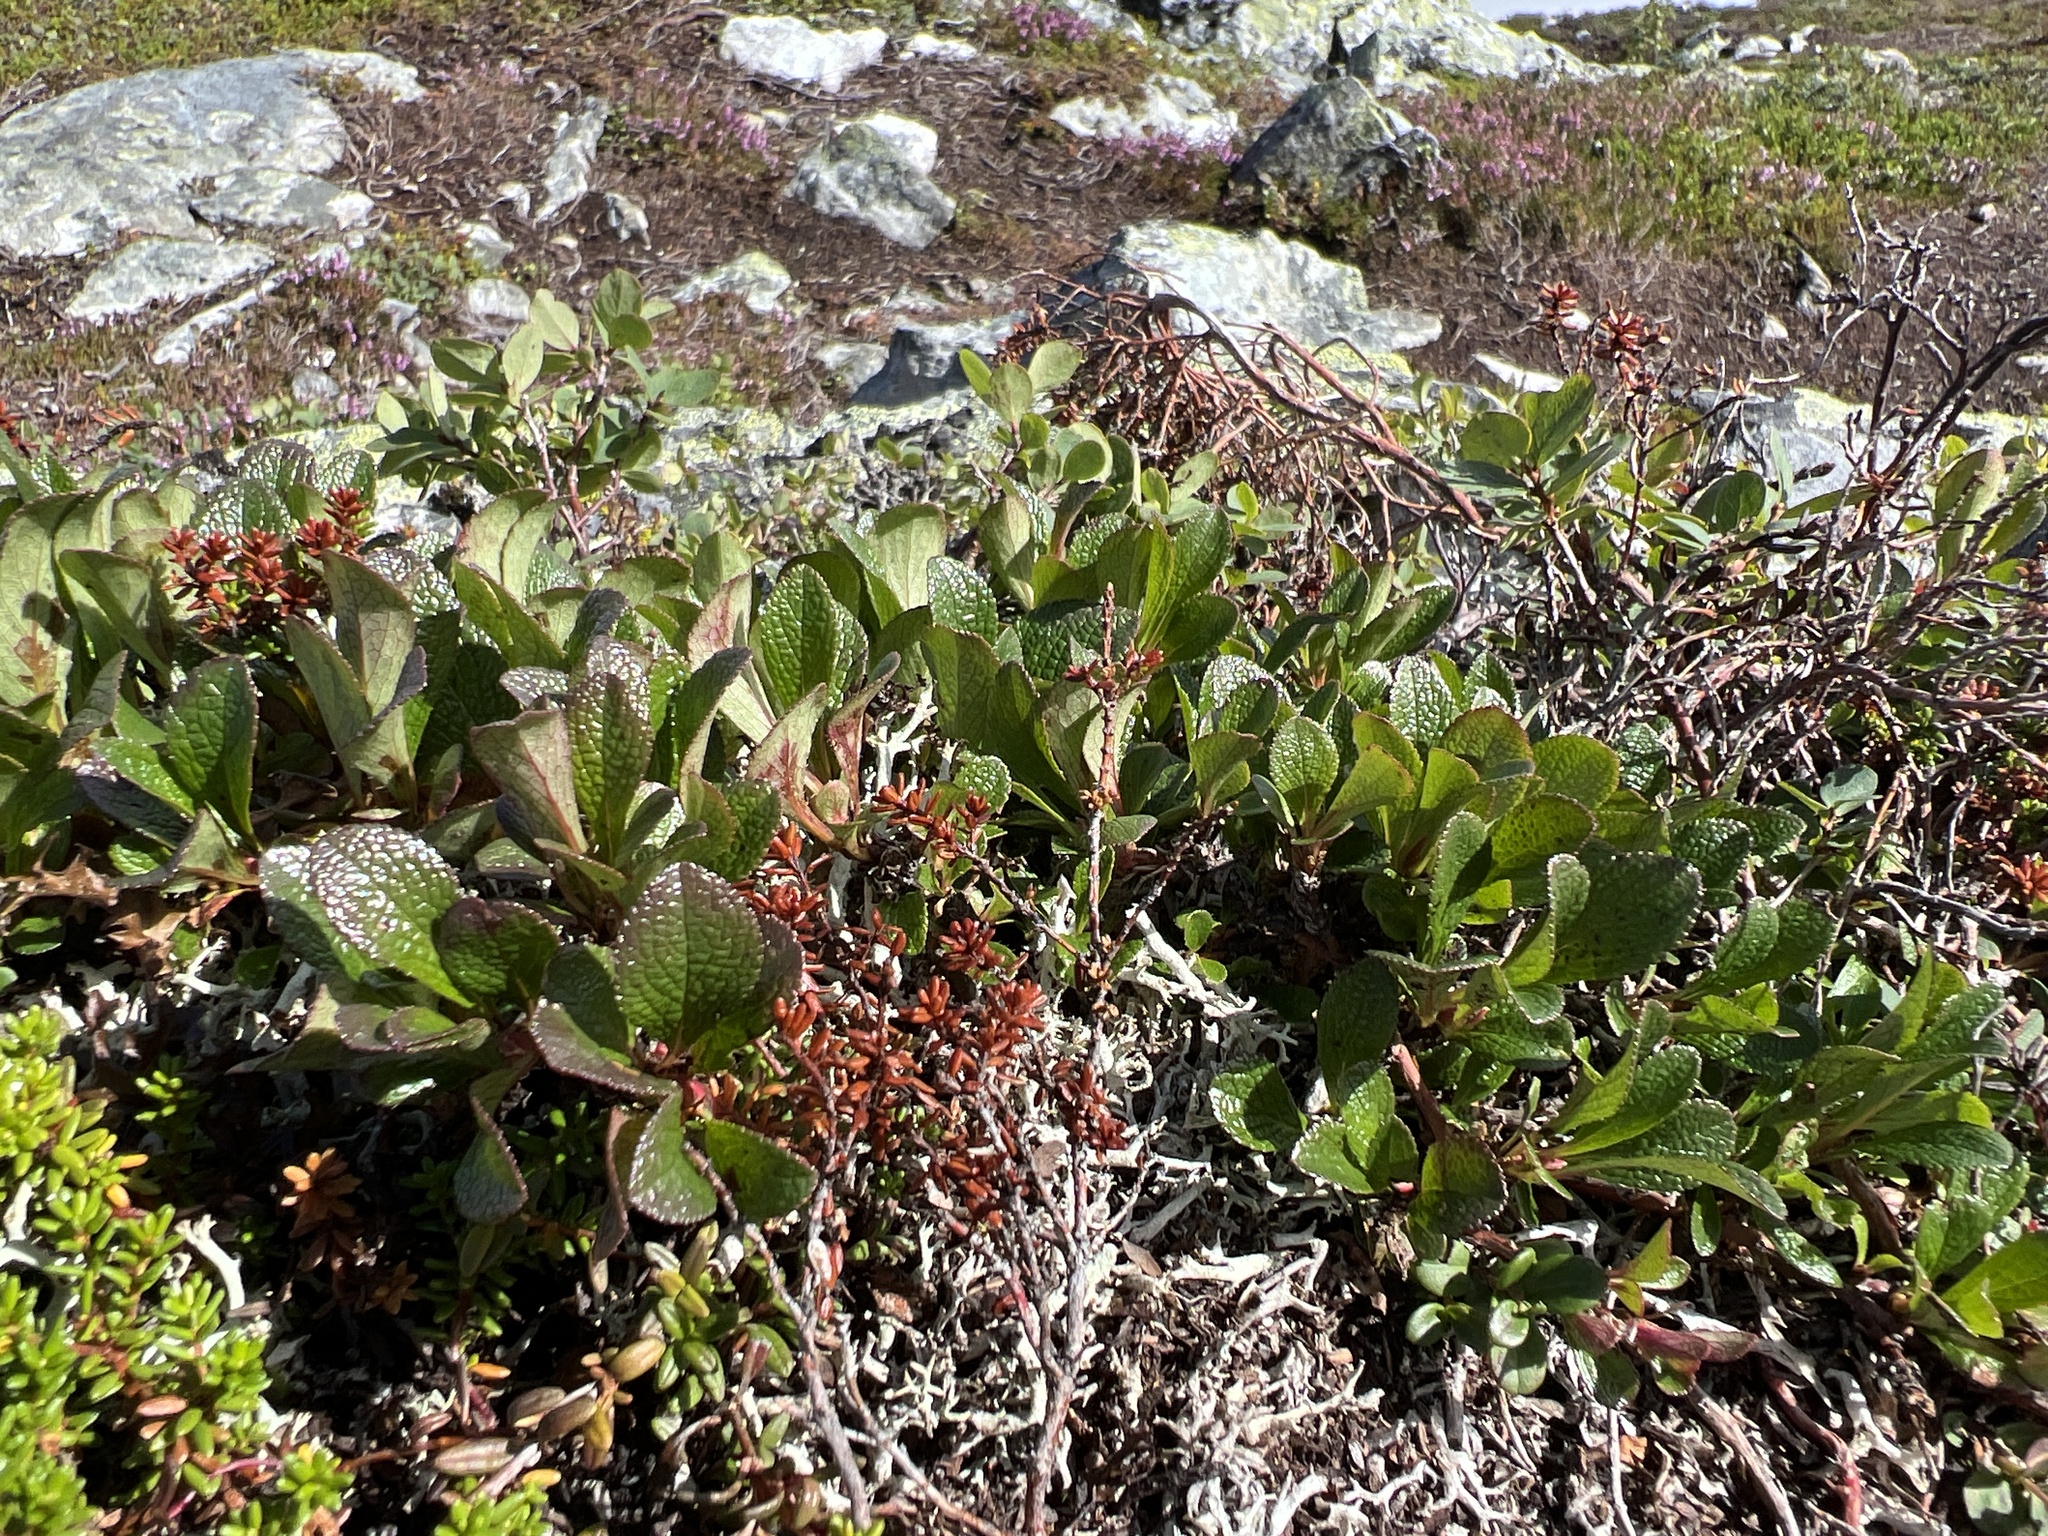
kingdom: Plantae
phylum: Tracheophyta
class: Magnoliopsida
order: Ericales
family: Ericaceae
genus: Arctostaphylos
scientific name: Arctostaphylos alpinus
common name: Alpine bearberry
